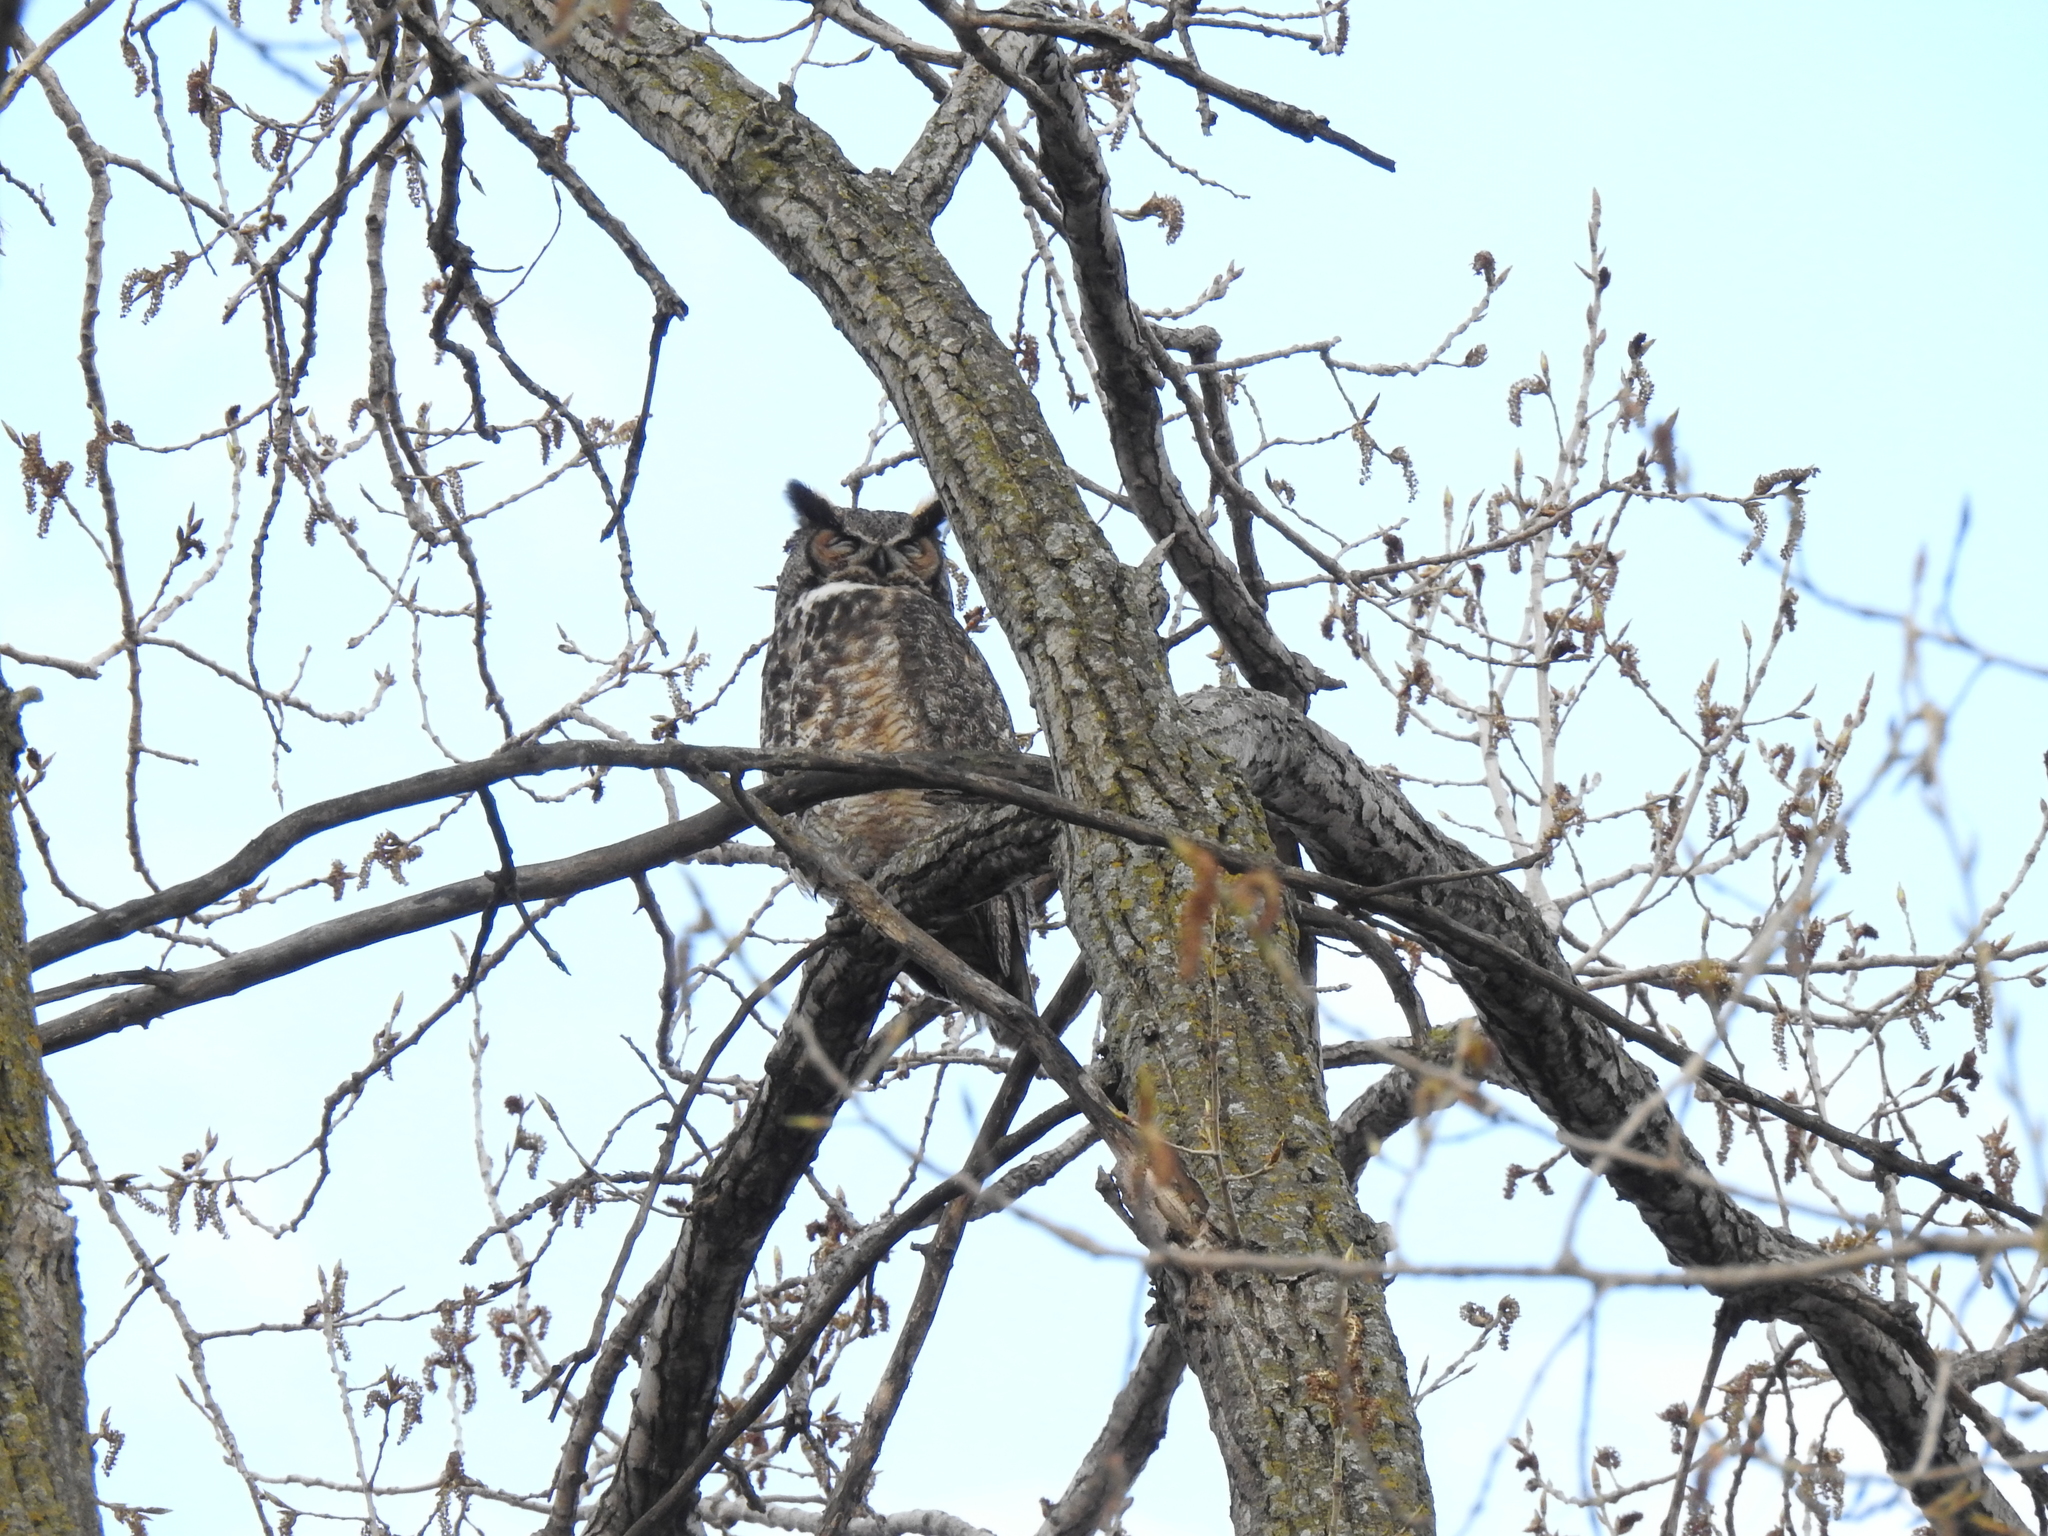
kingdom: Animalia
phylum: Chordata
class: Aves
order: Strigiformes
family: Strigidae
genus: Bubo
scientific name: Bubo virginianus
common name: Great horned owl
